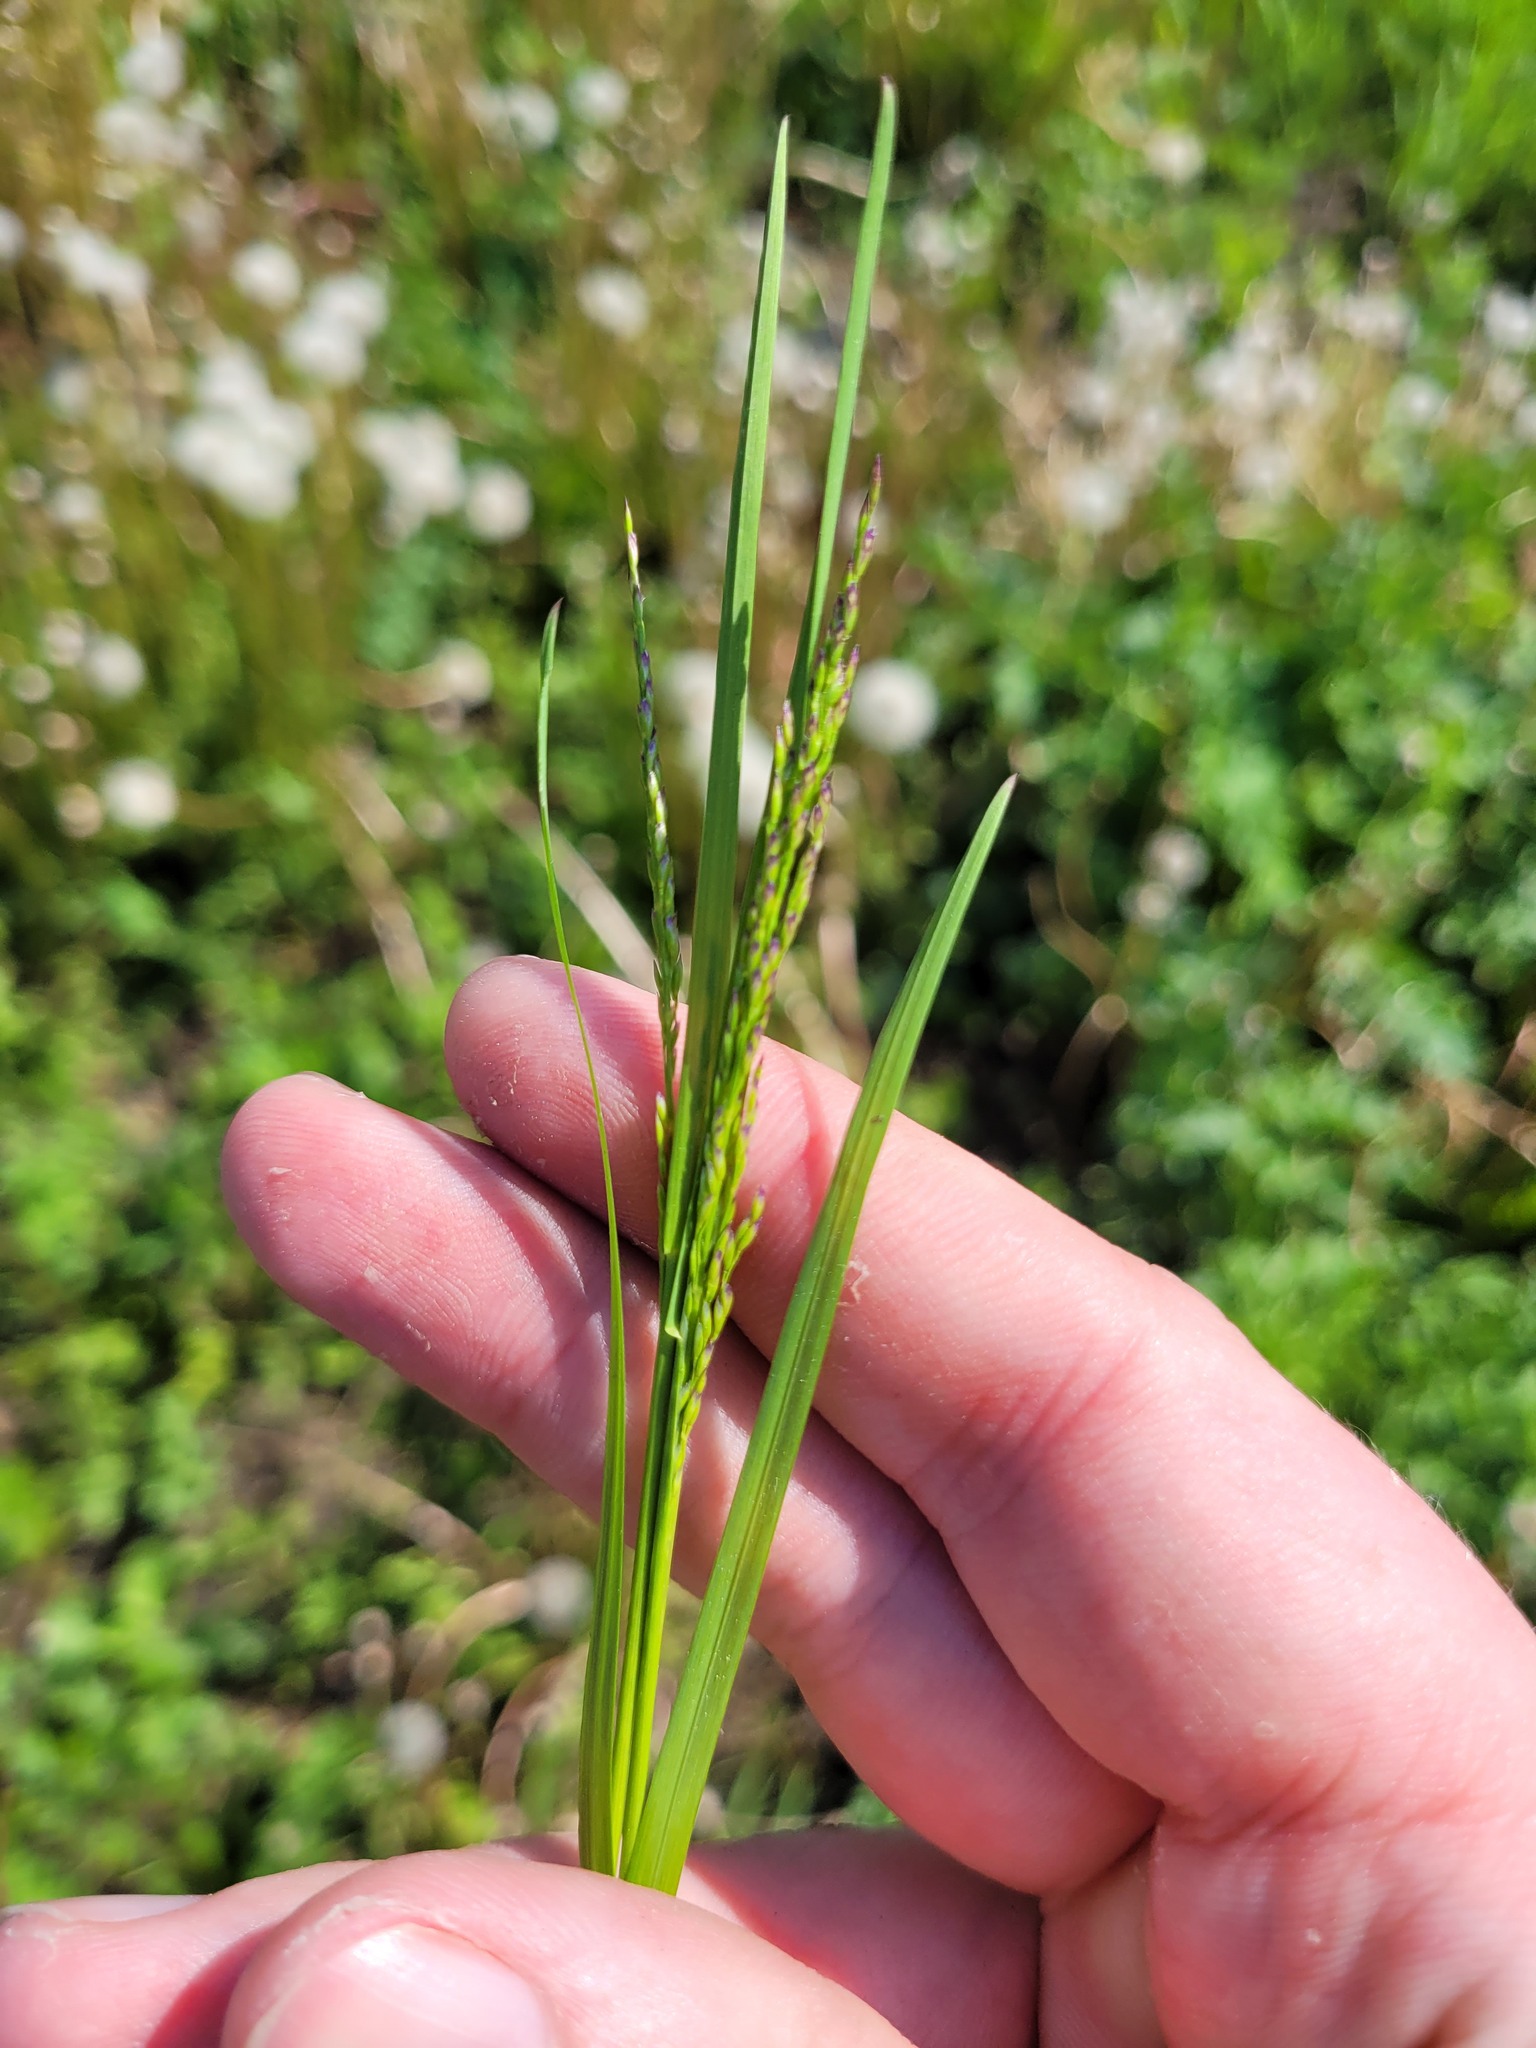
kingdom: Plantae
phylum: Tracheophyta
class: Liliopsida
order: Poales
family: Poaceae
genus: Poa
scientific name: Poa palustris
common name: Swamp meadow-grass
